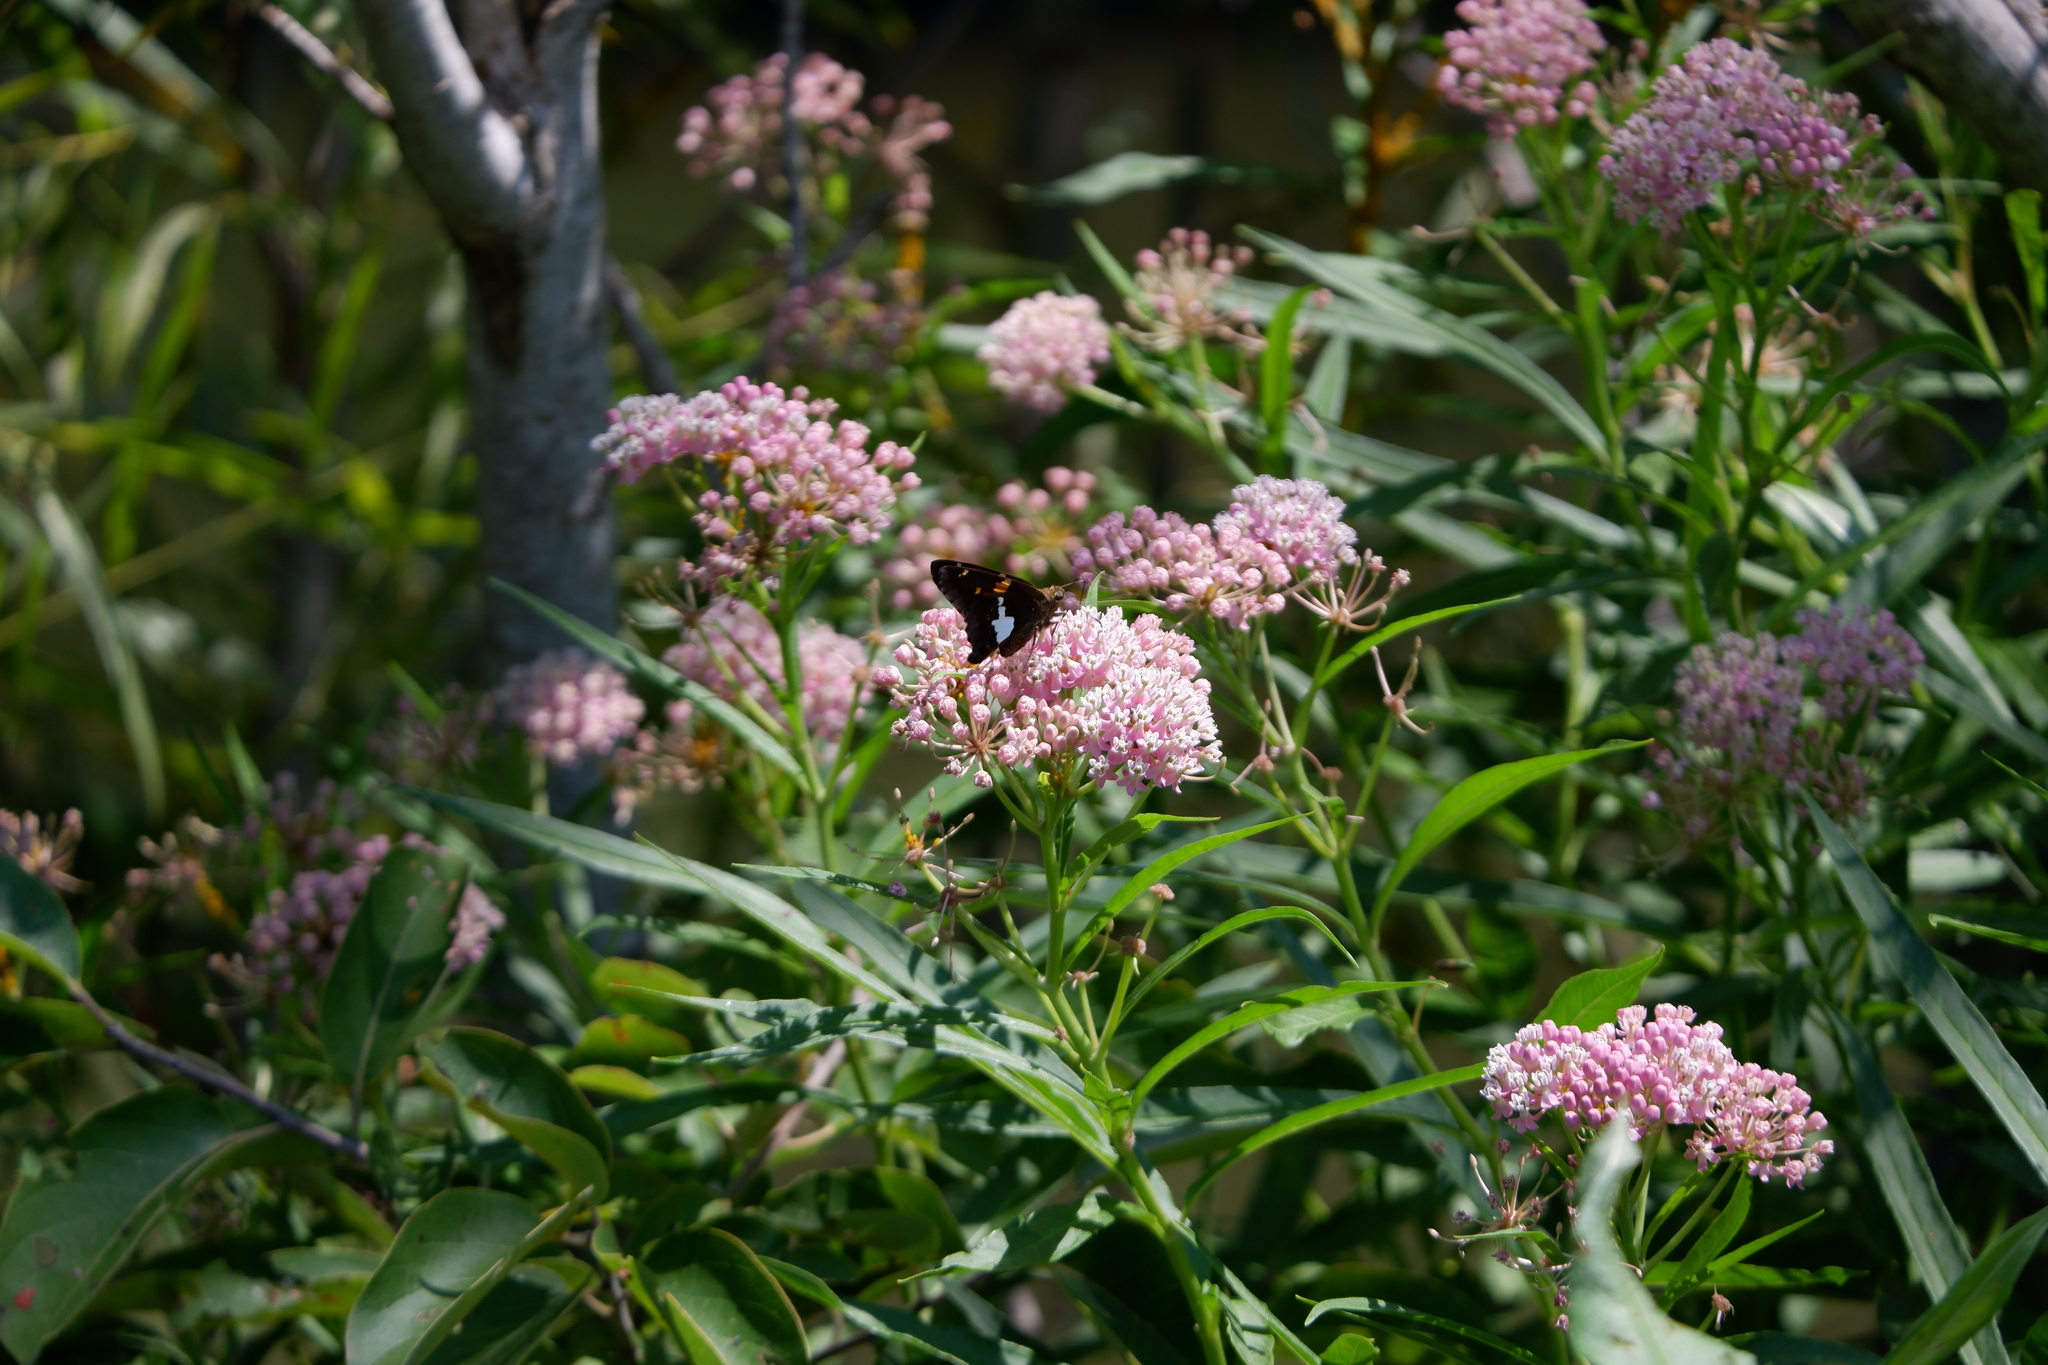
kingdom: Animalia
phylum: Arthropoda
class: Insecta
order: Lepidoptera
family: Hesperiidae
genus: Epargyreus
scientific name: Epargyreus clarus
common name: Silver-spotted skipper
